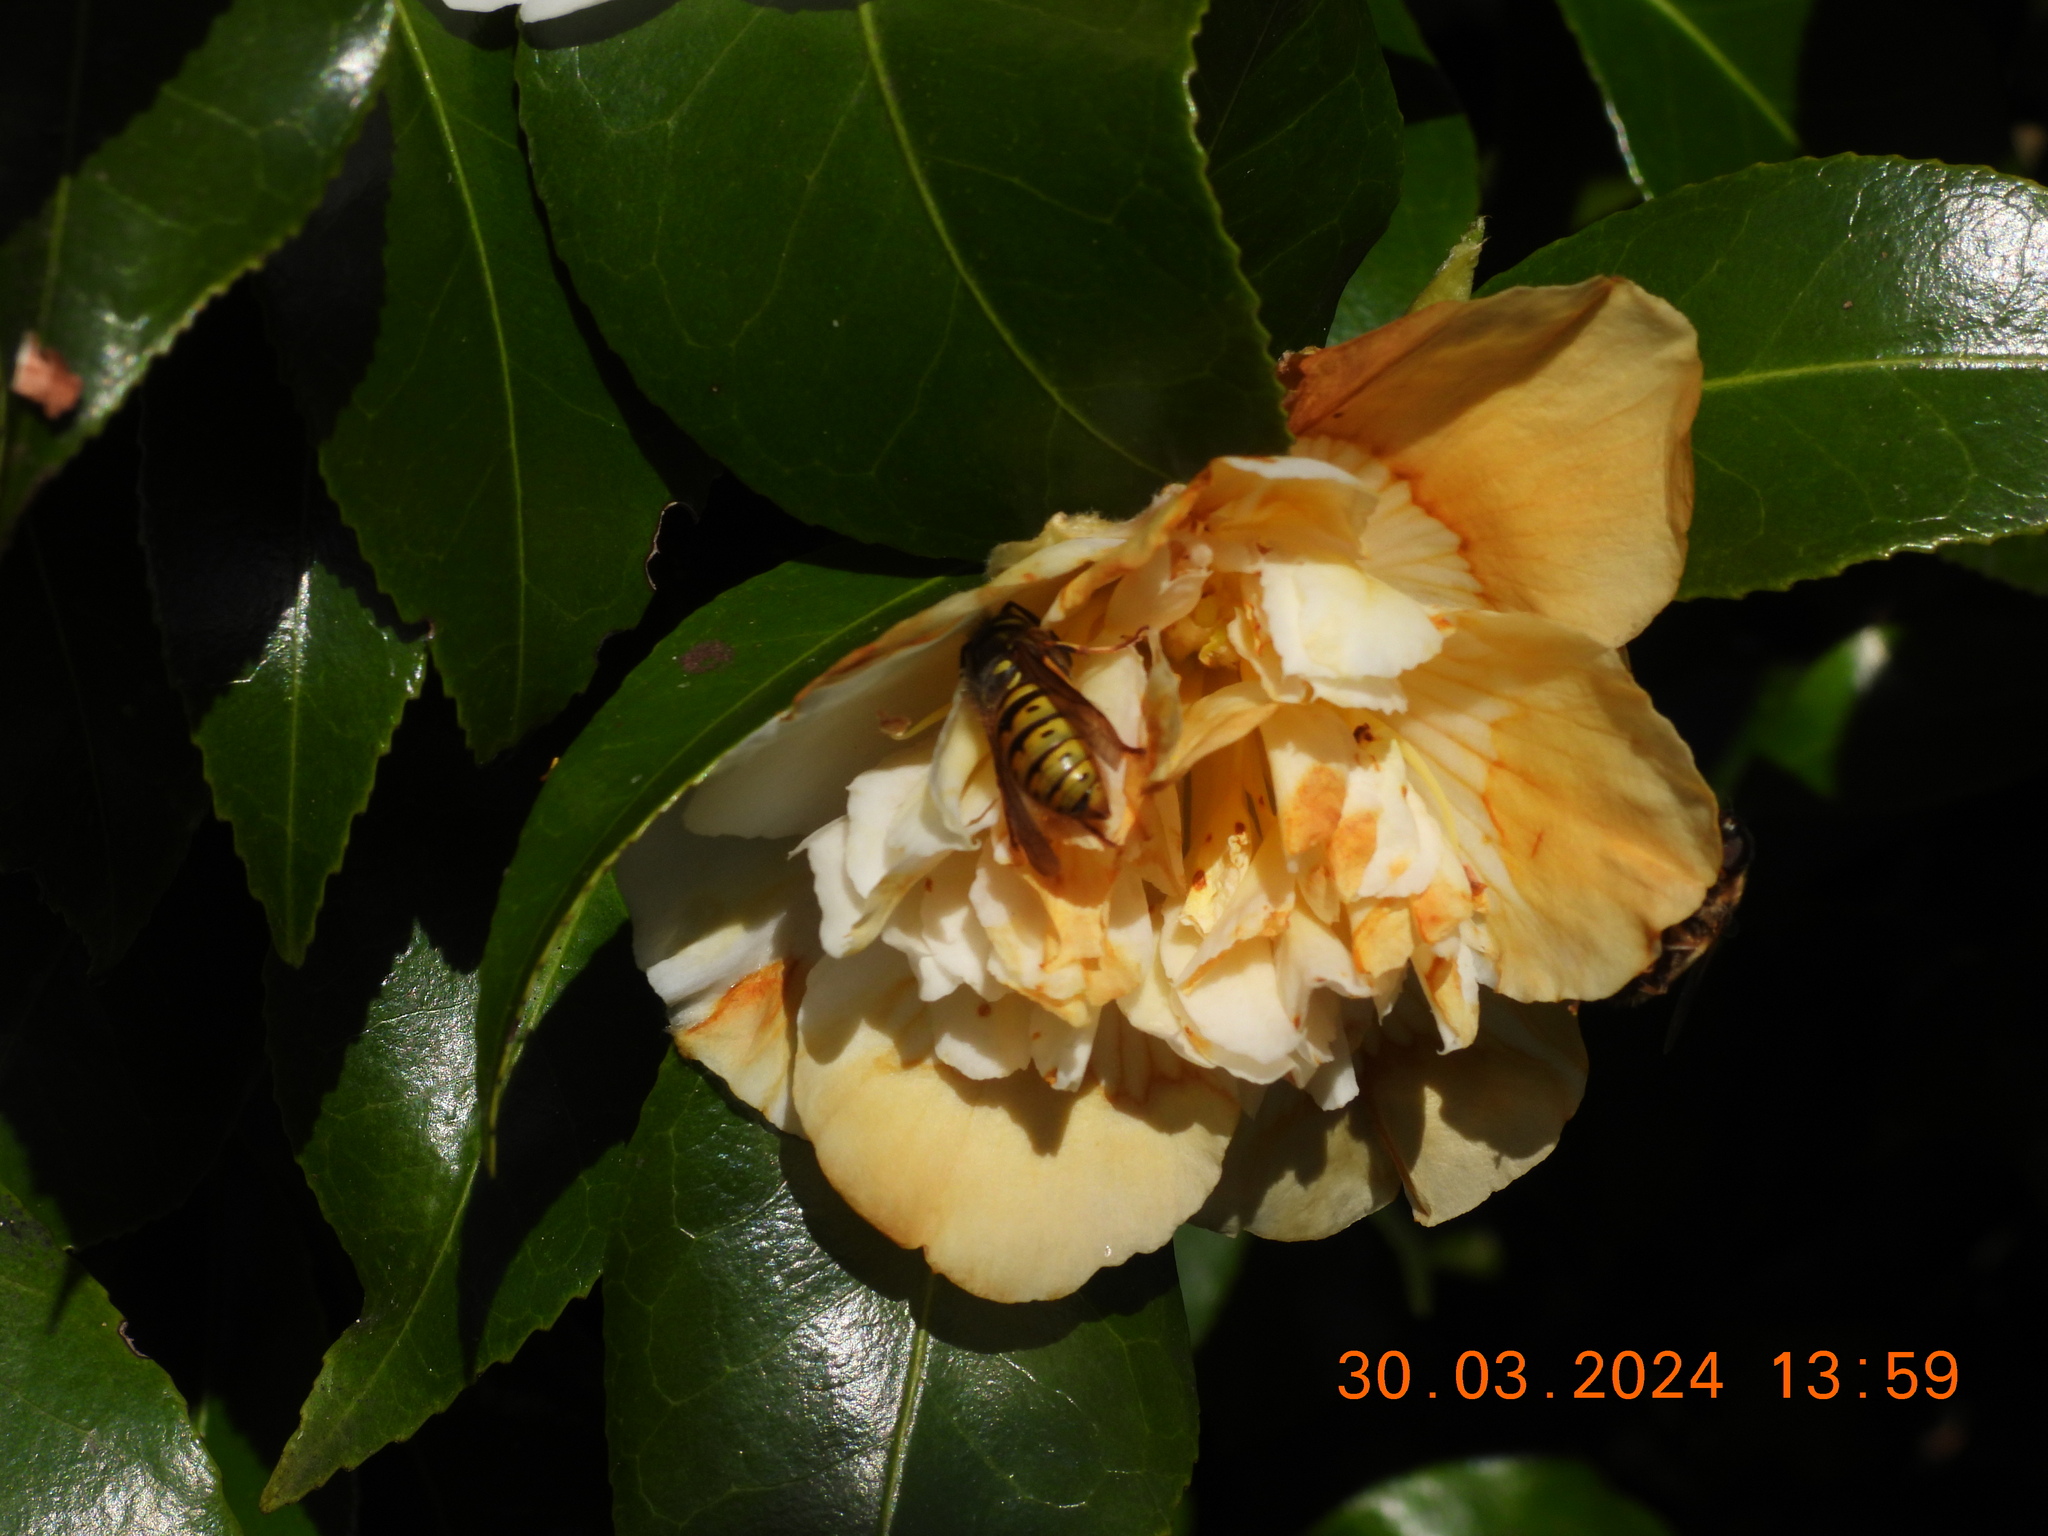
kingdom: Animalia
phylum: Arthropoda
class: Insecta
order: Hymenoptera
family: Vespidae
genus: Vespula
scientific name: Vespula vulgaris
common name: Common wasp
